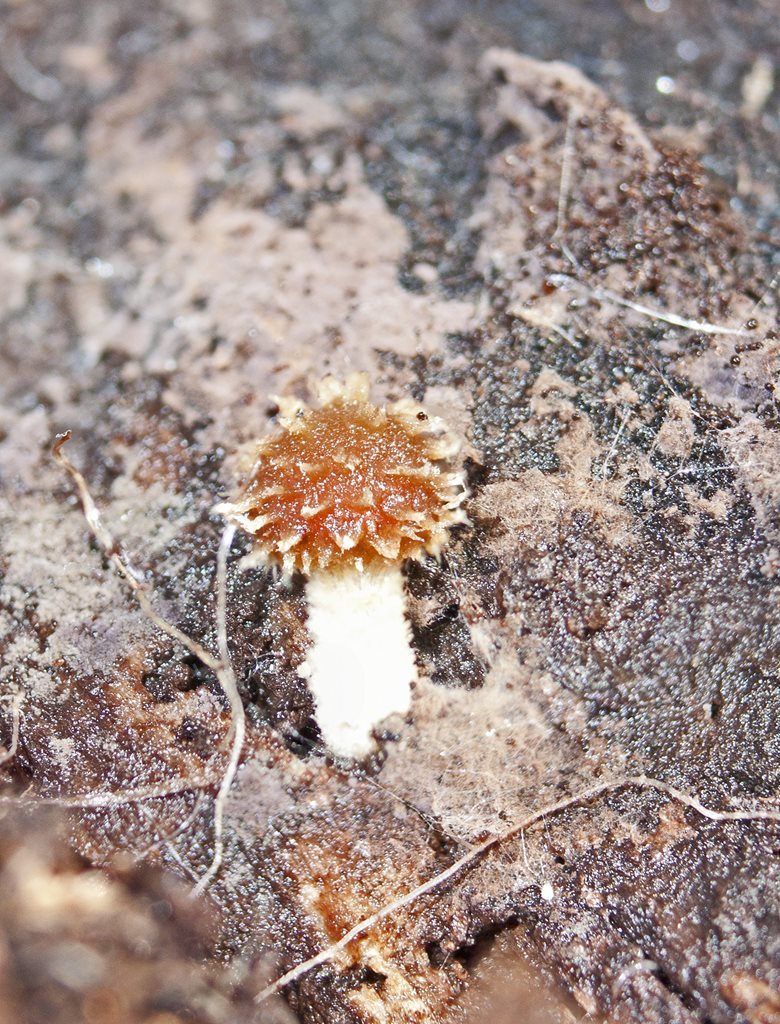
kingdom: Fungi
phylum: Basidiomycota
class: Agaricomycetes
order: Agaricales
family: Psathyrellaceae
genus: Psathyrella
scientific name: Psathyrella echinata
